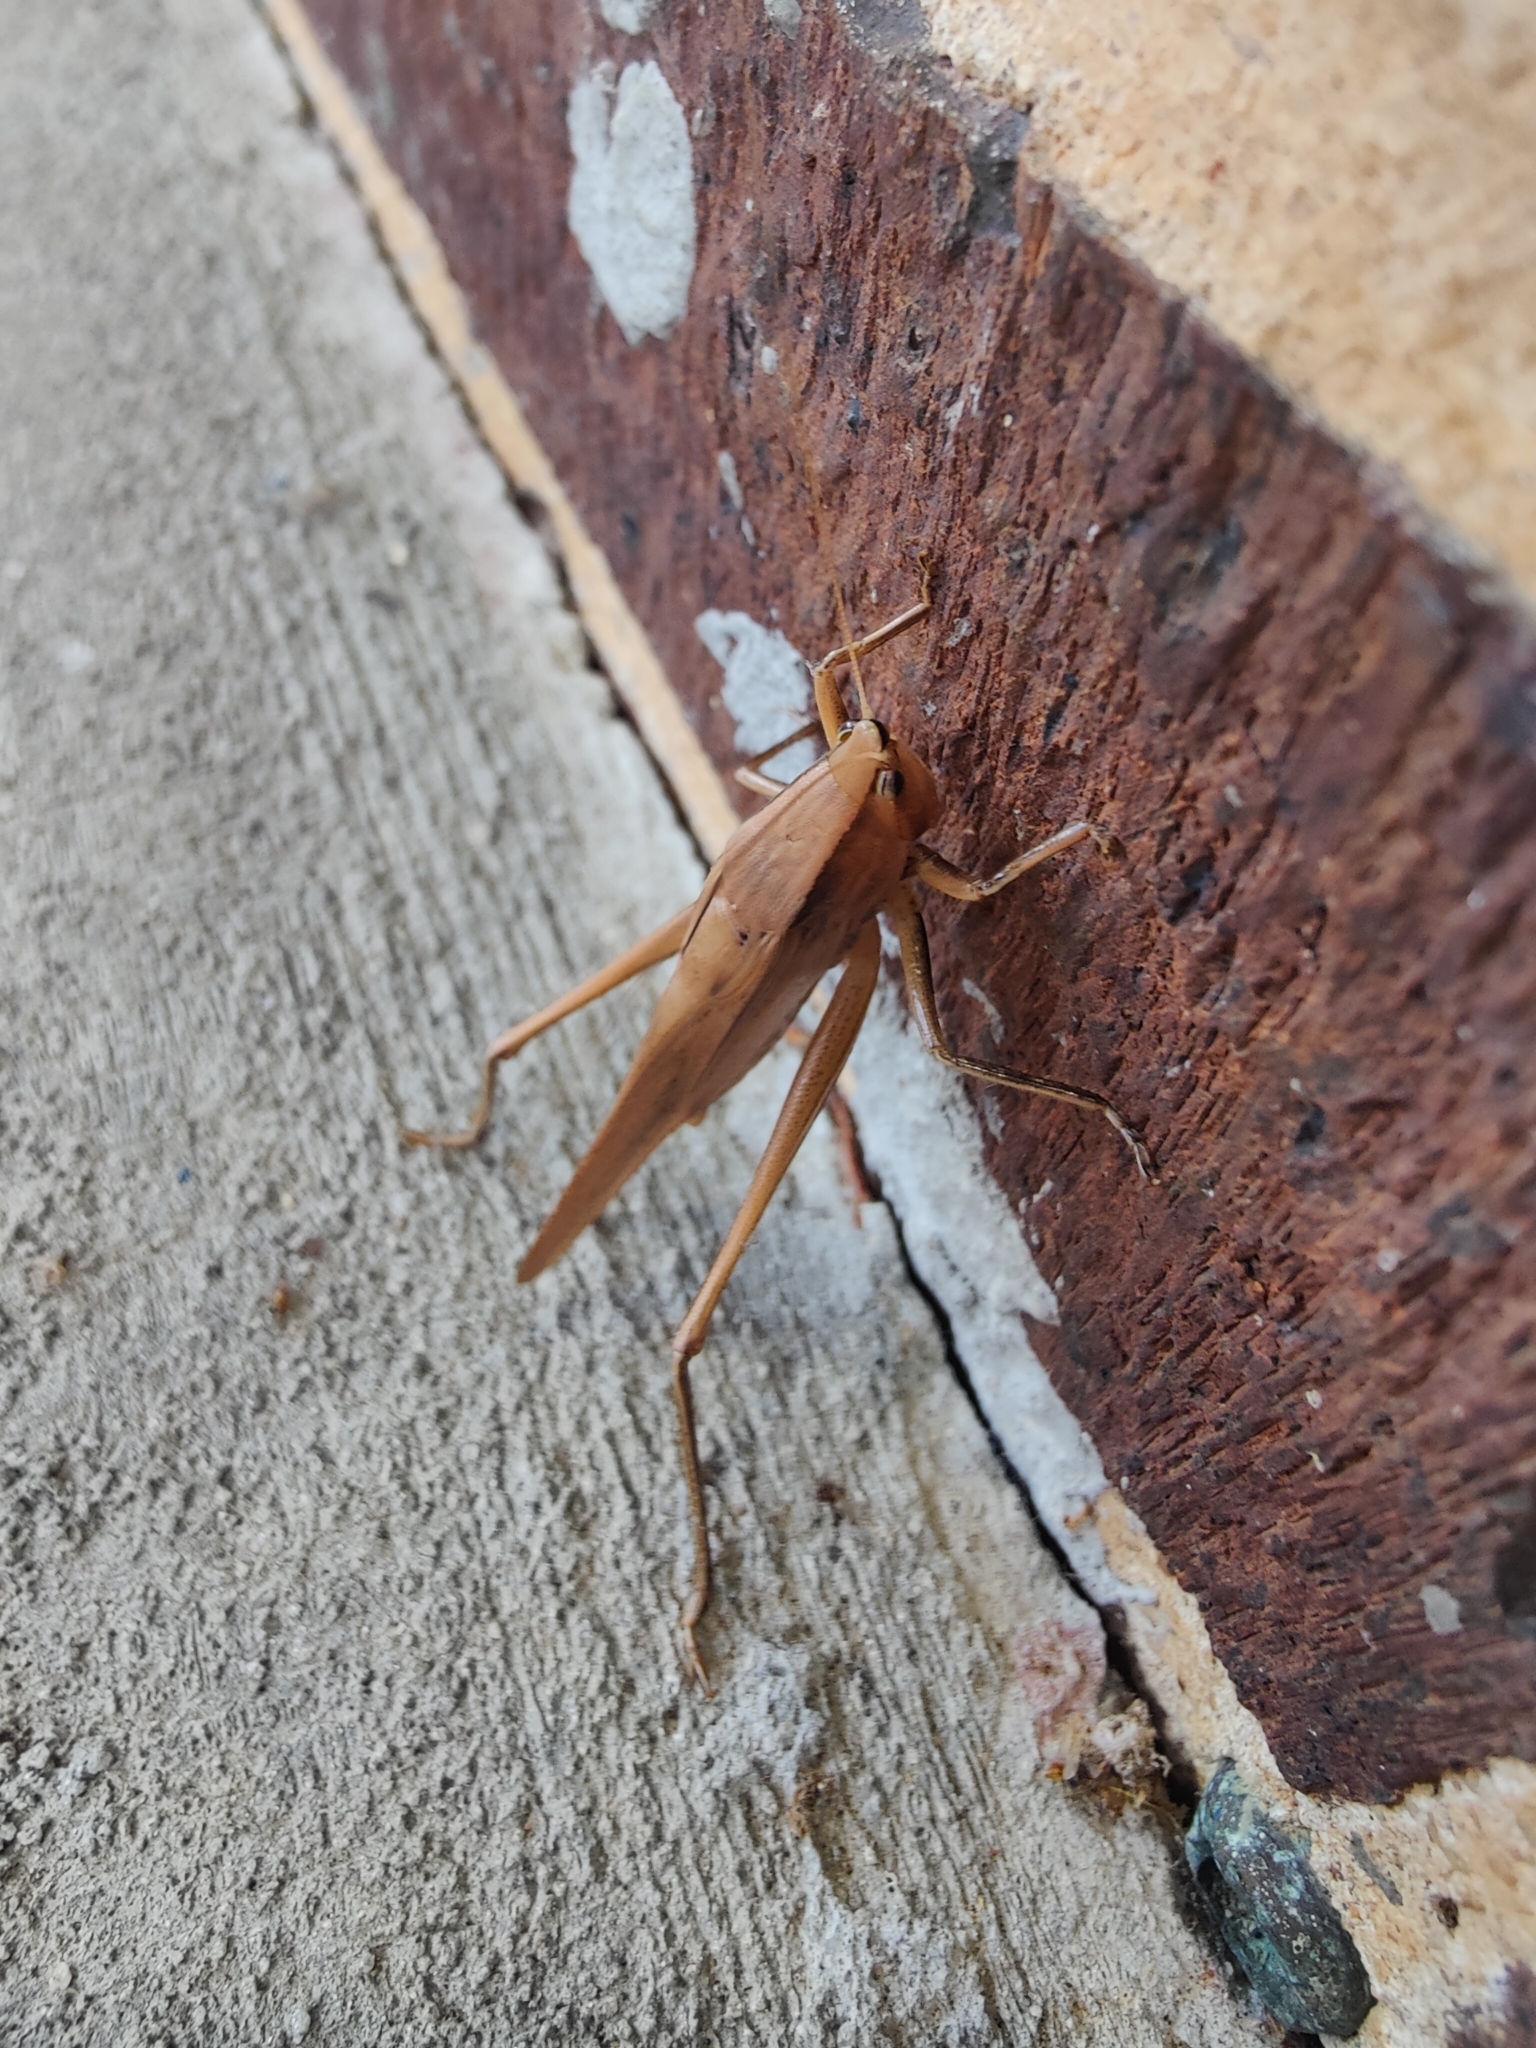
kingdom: Animalia
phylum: Arthropoda
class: Insecta
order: Orthoptera
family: Tettigoniidae
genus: Neoconocephalus
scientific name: Neoconocephalus triops
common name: Broad-tipped conehead
